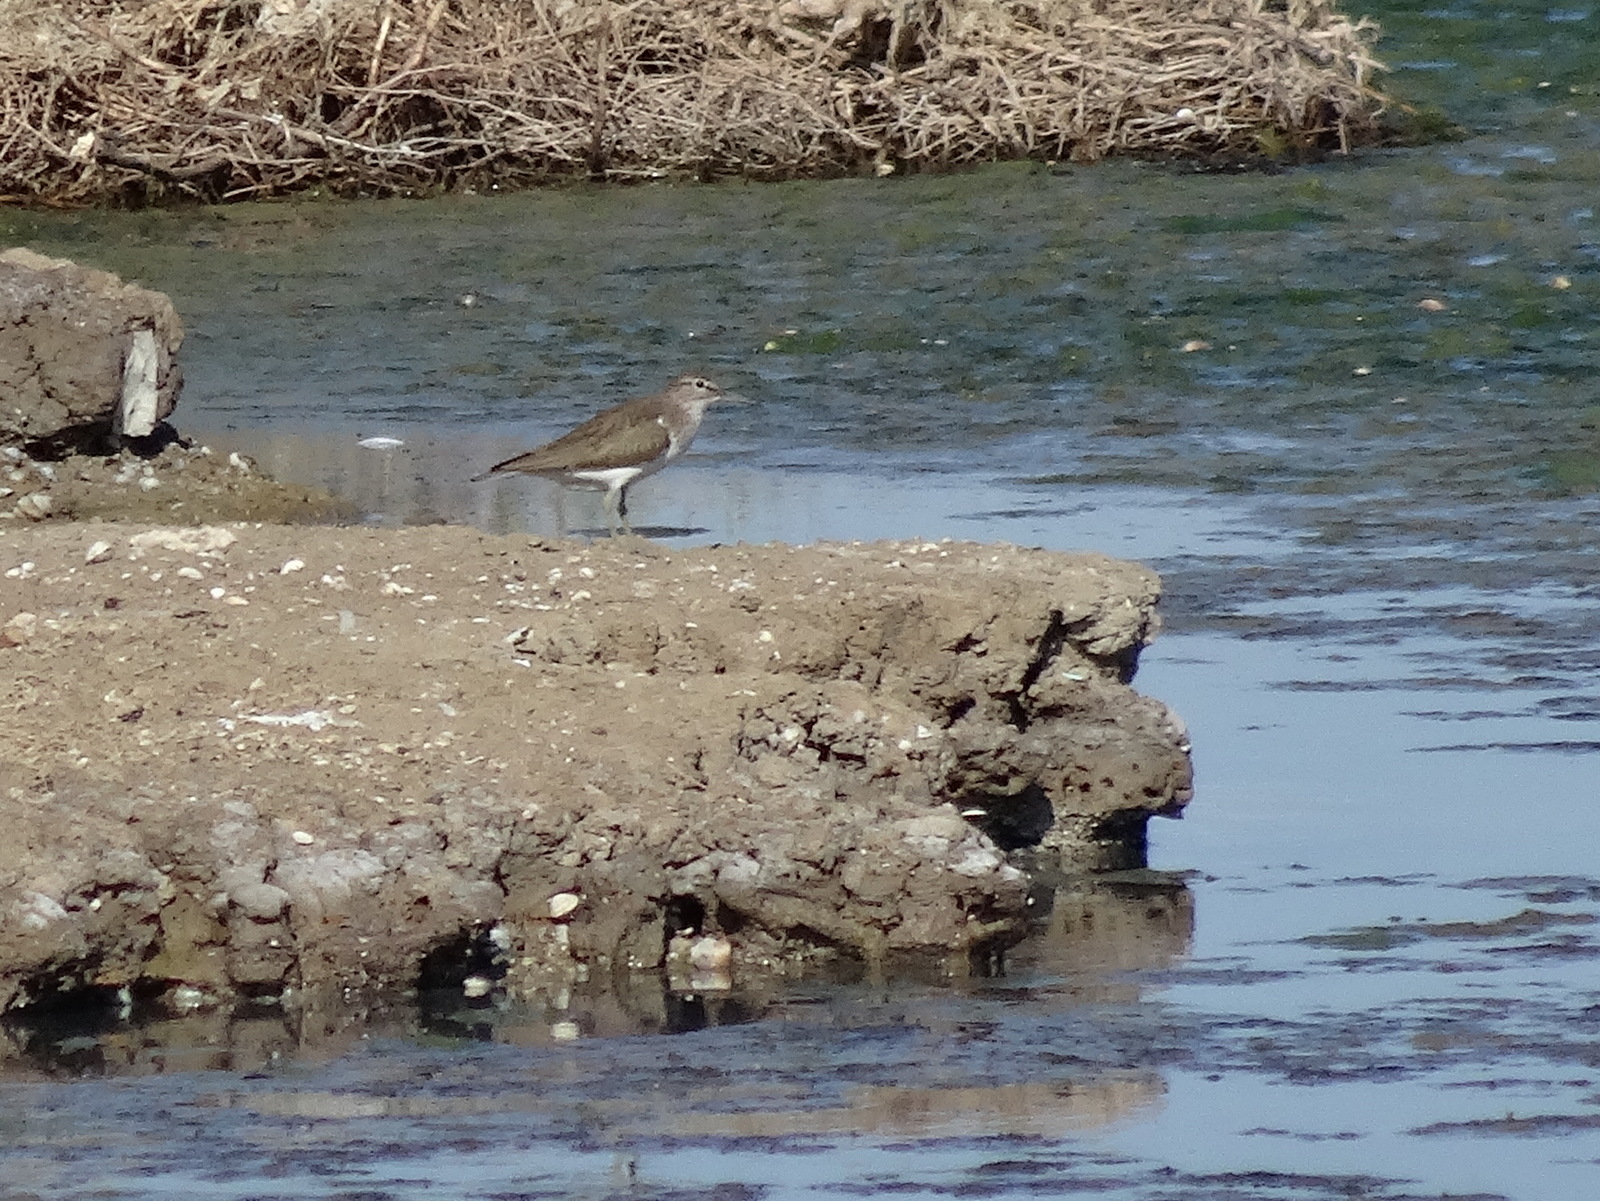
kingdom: Animalia
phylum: Chordata
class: Aves
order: Charadriiformes
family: Scolopacidae
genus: Actitis
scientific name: Actitis hypoleucos
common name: Common sandpiper
